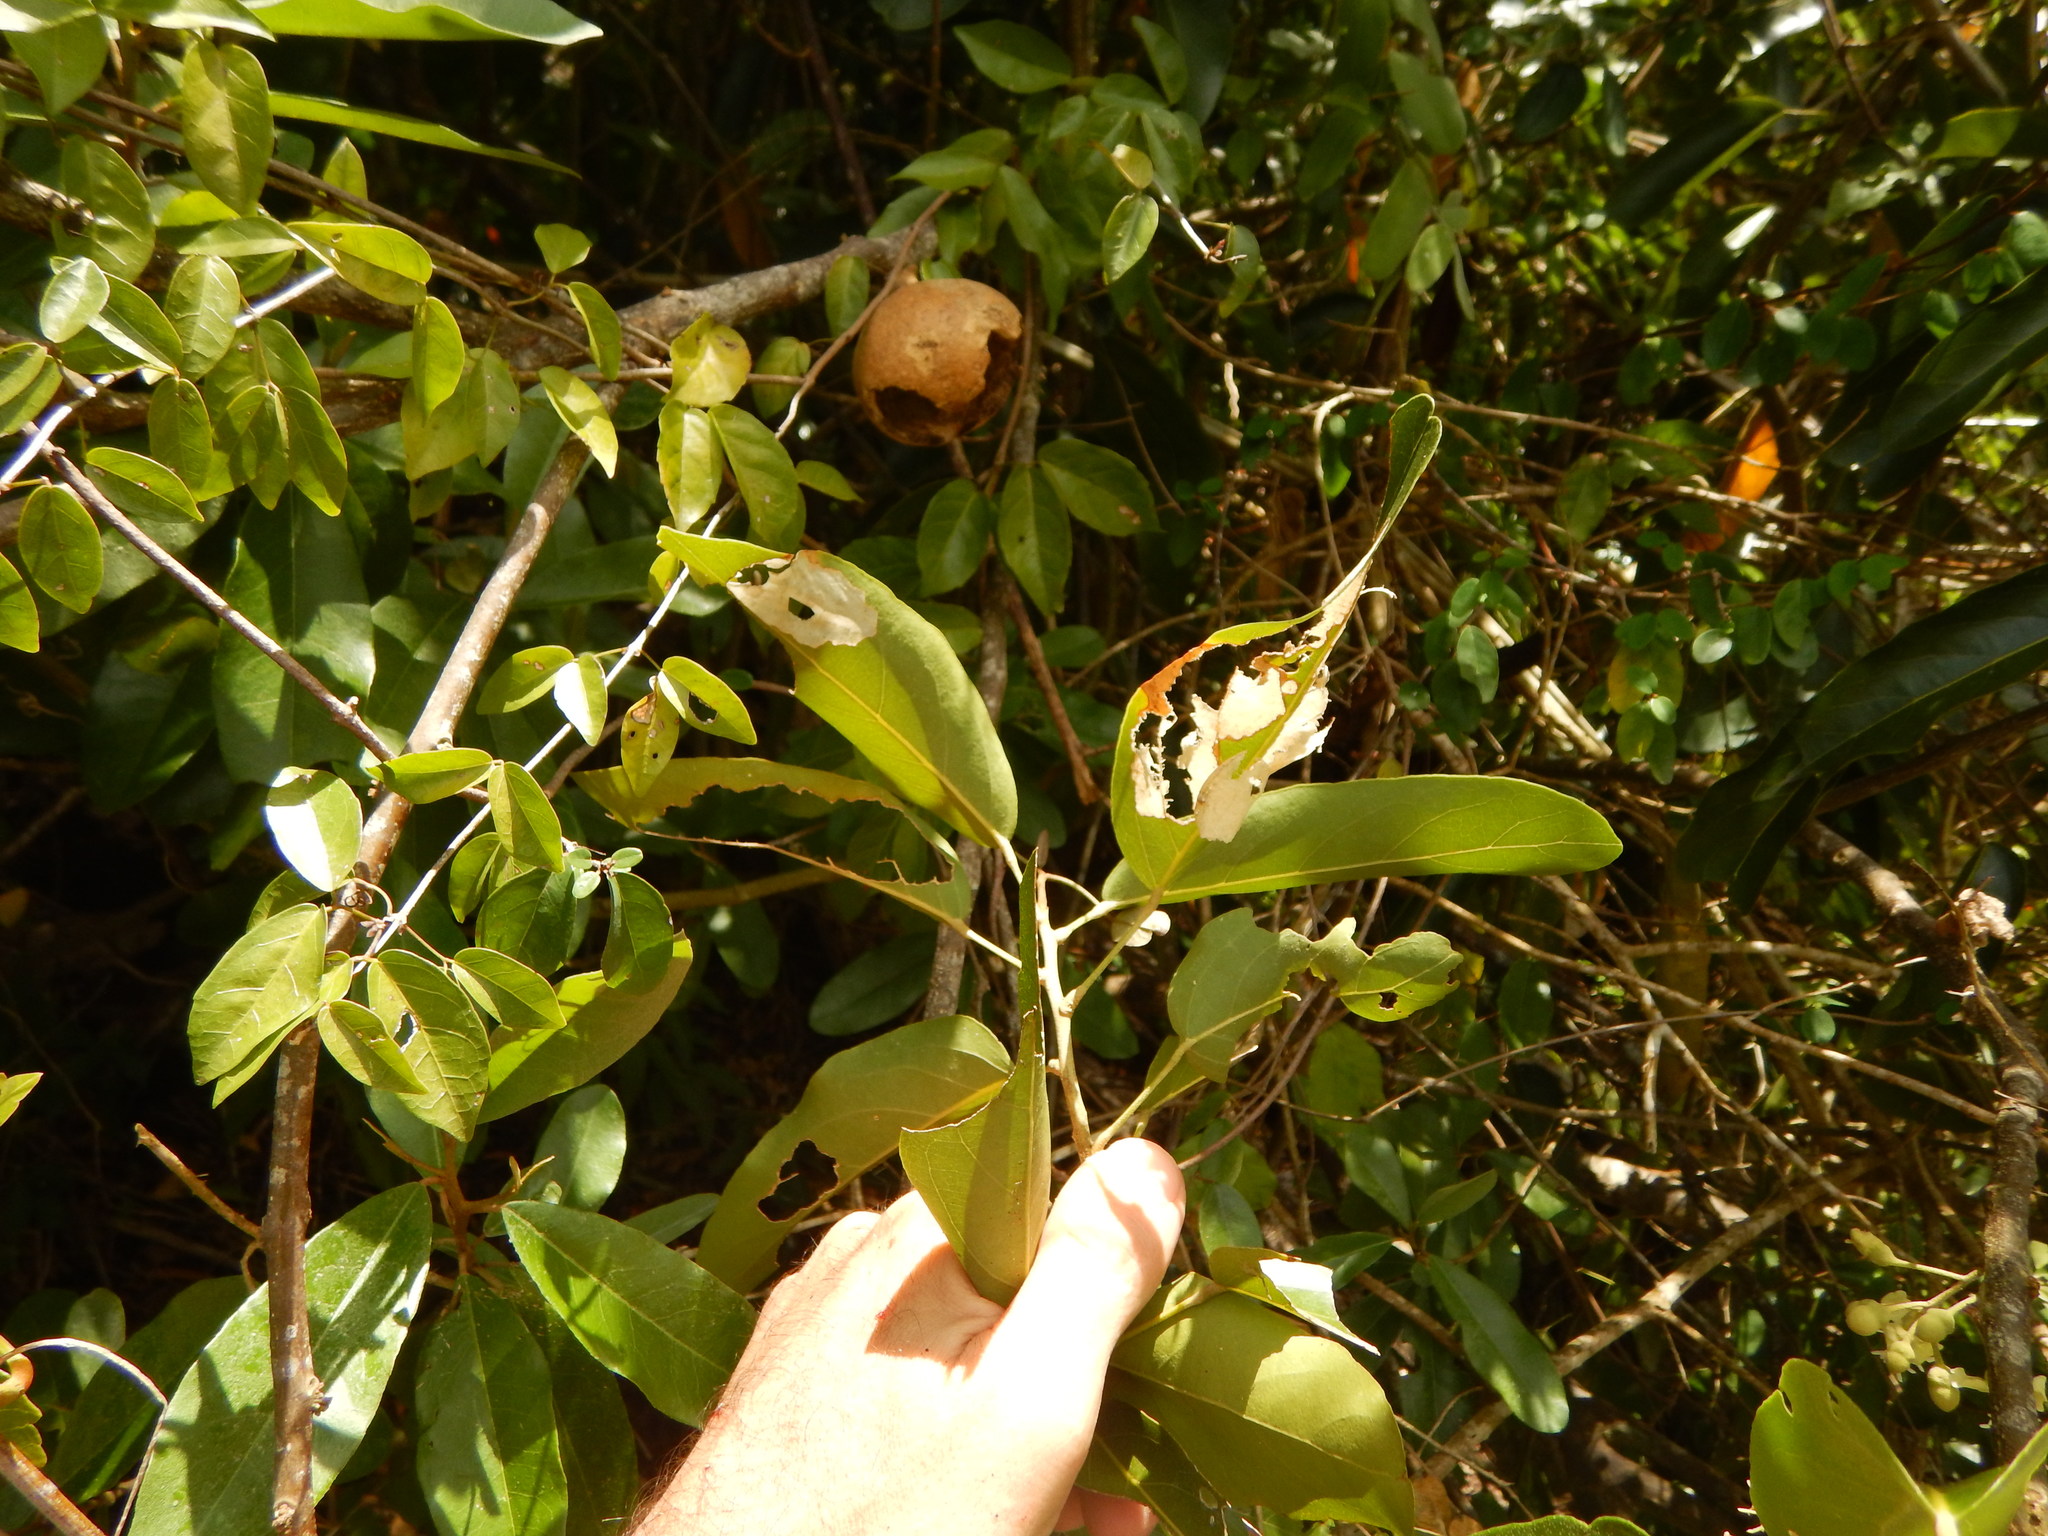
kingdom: Plantae
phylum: Tracheophyta
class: Magnoliopsida
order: Brassicales
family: Capparaceae
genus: Morisonia
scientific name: Morisonia americana
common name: Wild mesple
